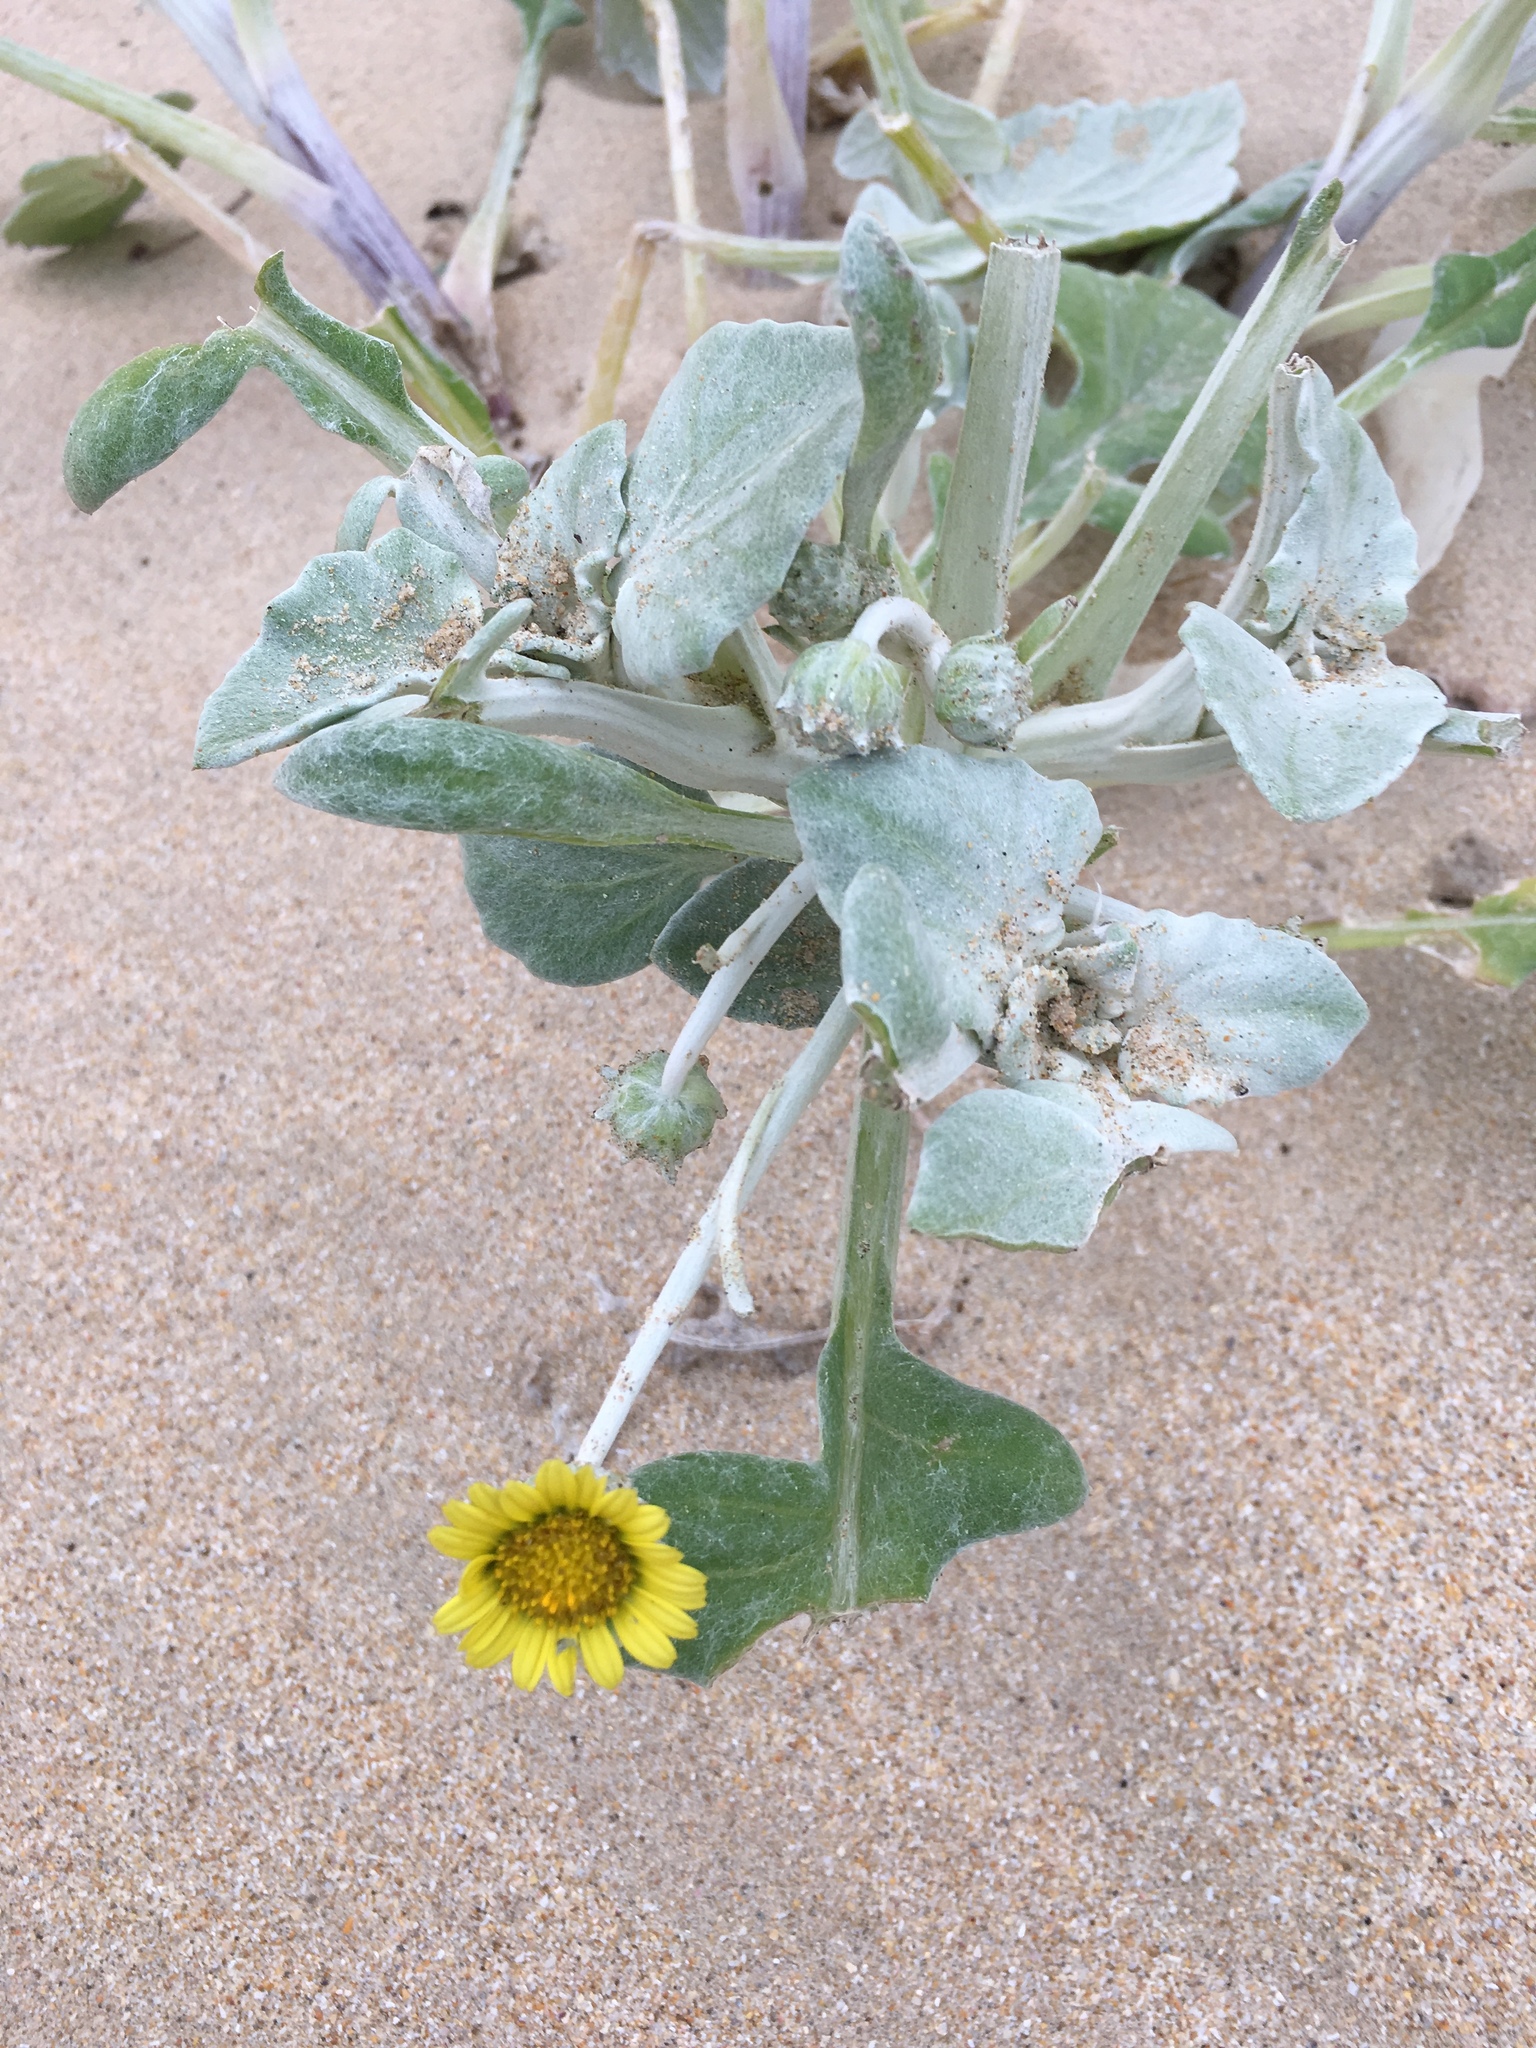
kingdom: Plantae
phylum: Tracheophyta
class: Magnoliopsida
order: Asterales
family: Asteraceae
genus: Arctotheca
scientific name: Arctotheca populifolia
